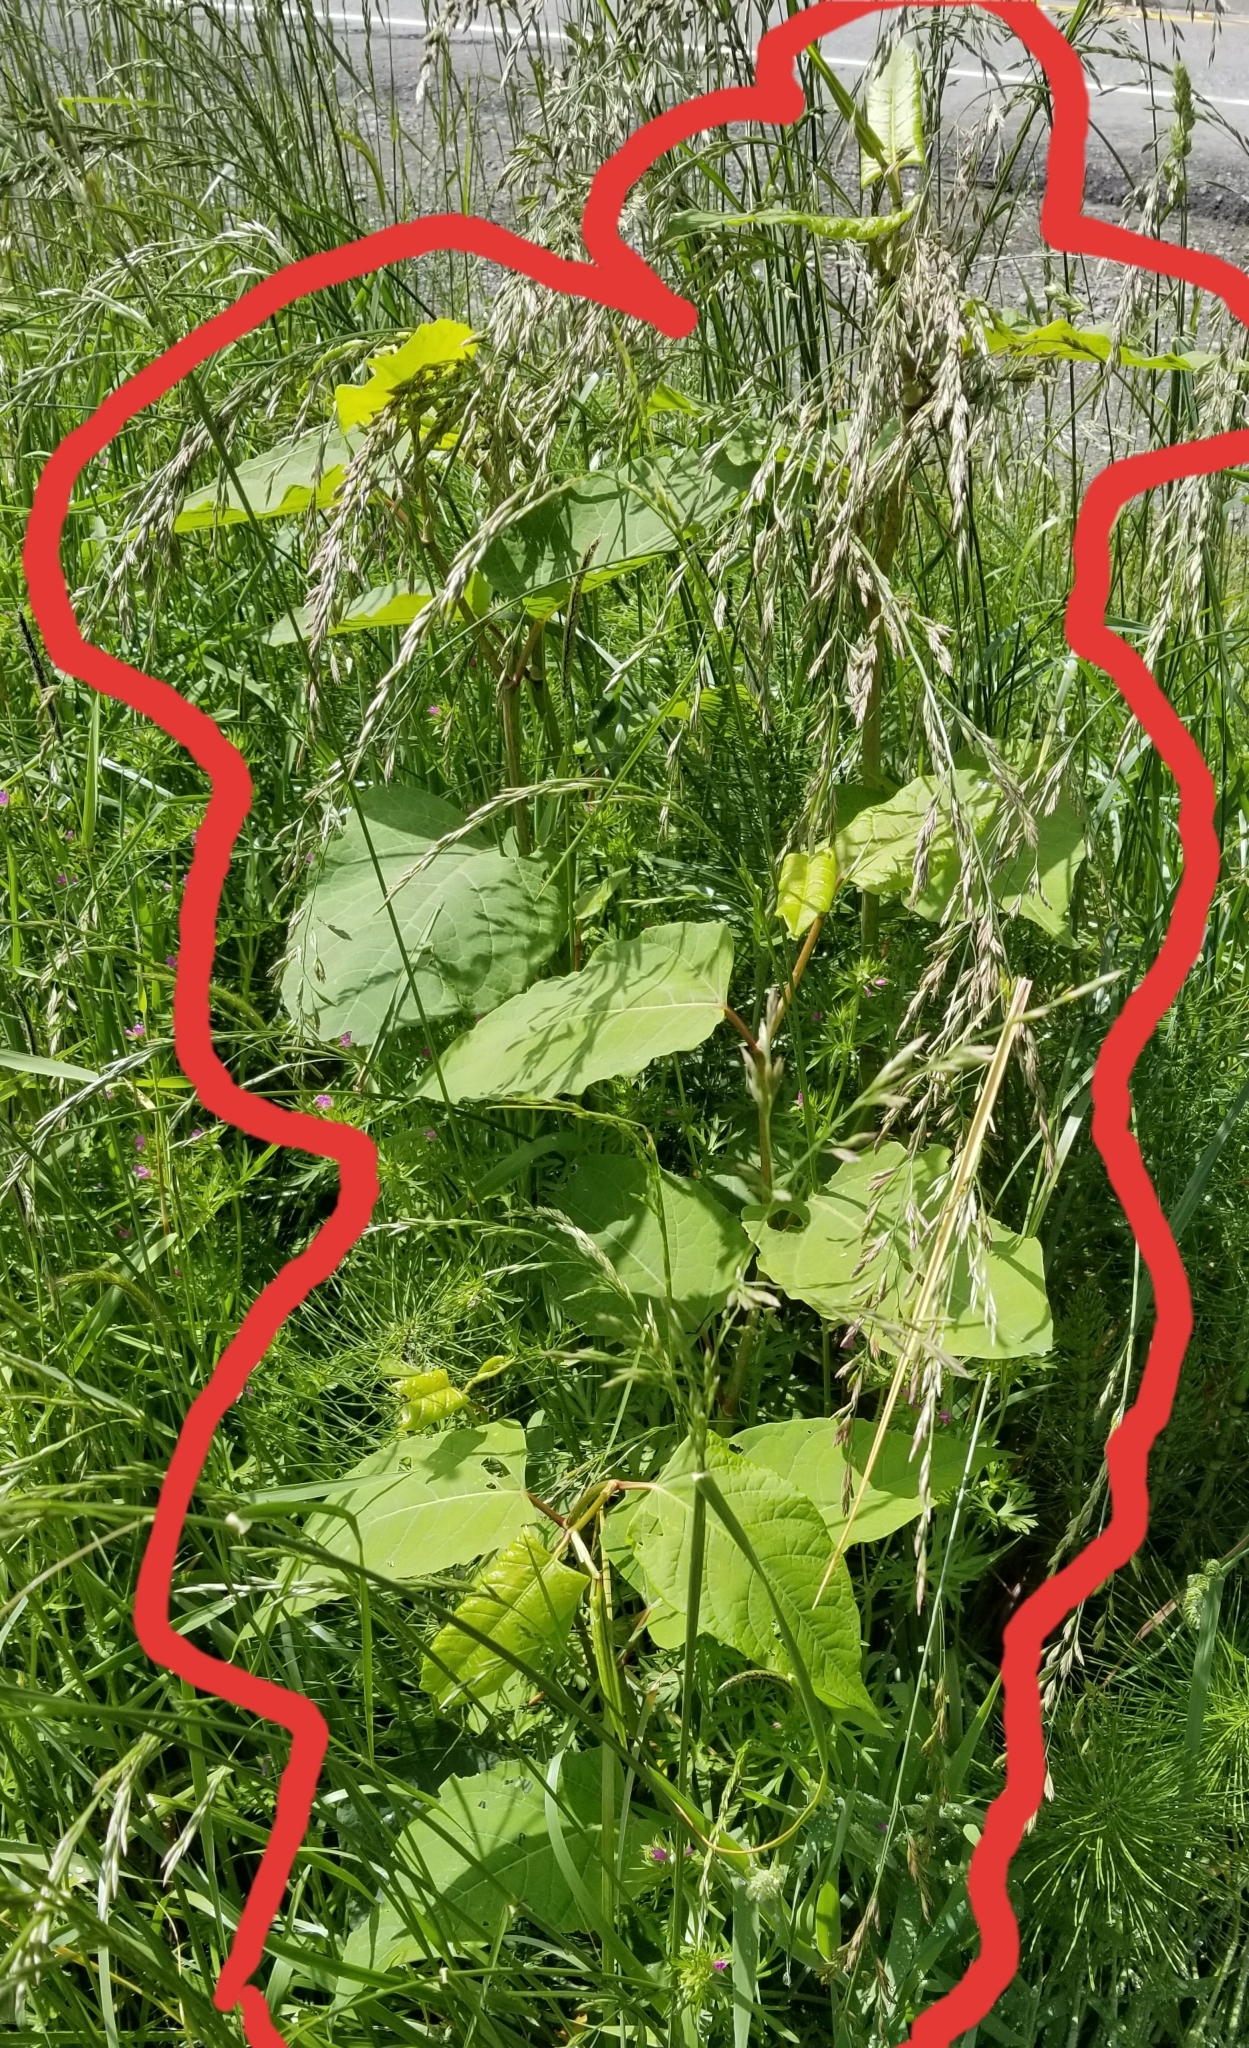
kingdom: Plantae
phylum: Tracheophyta
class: Magnoliopsida
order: Caryophyllales
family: Polygonaceae
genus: Reynoutria
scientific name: Reynoutria bohemica
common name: Bohemian knotweed
